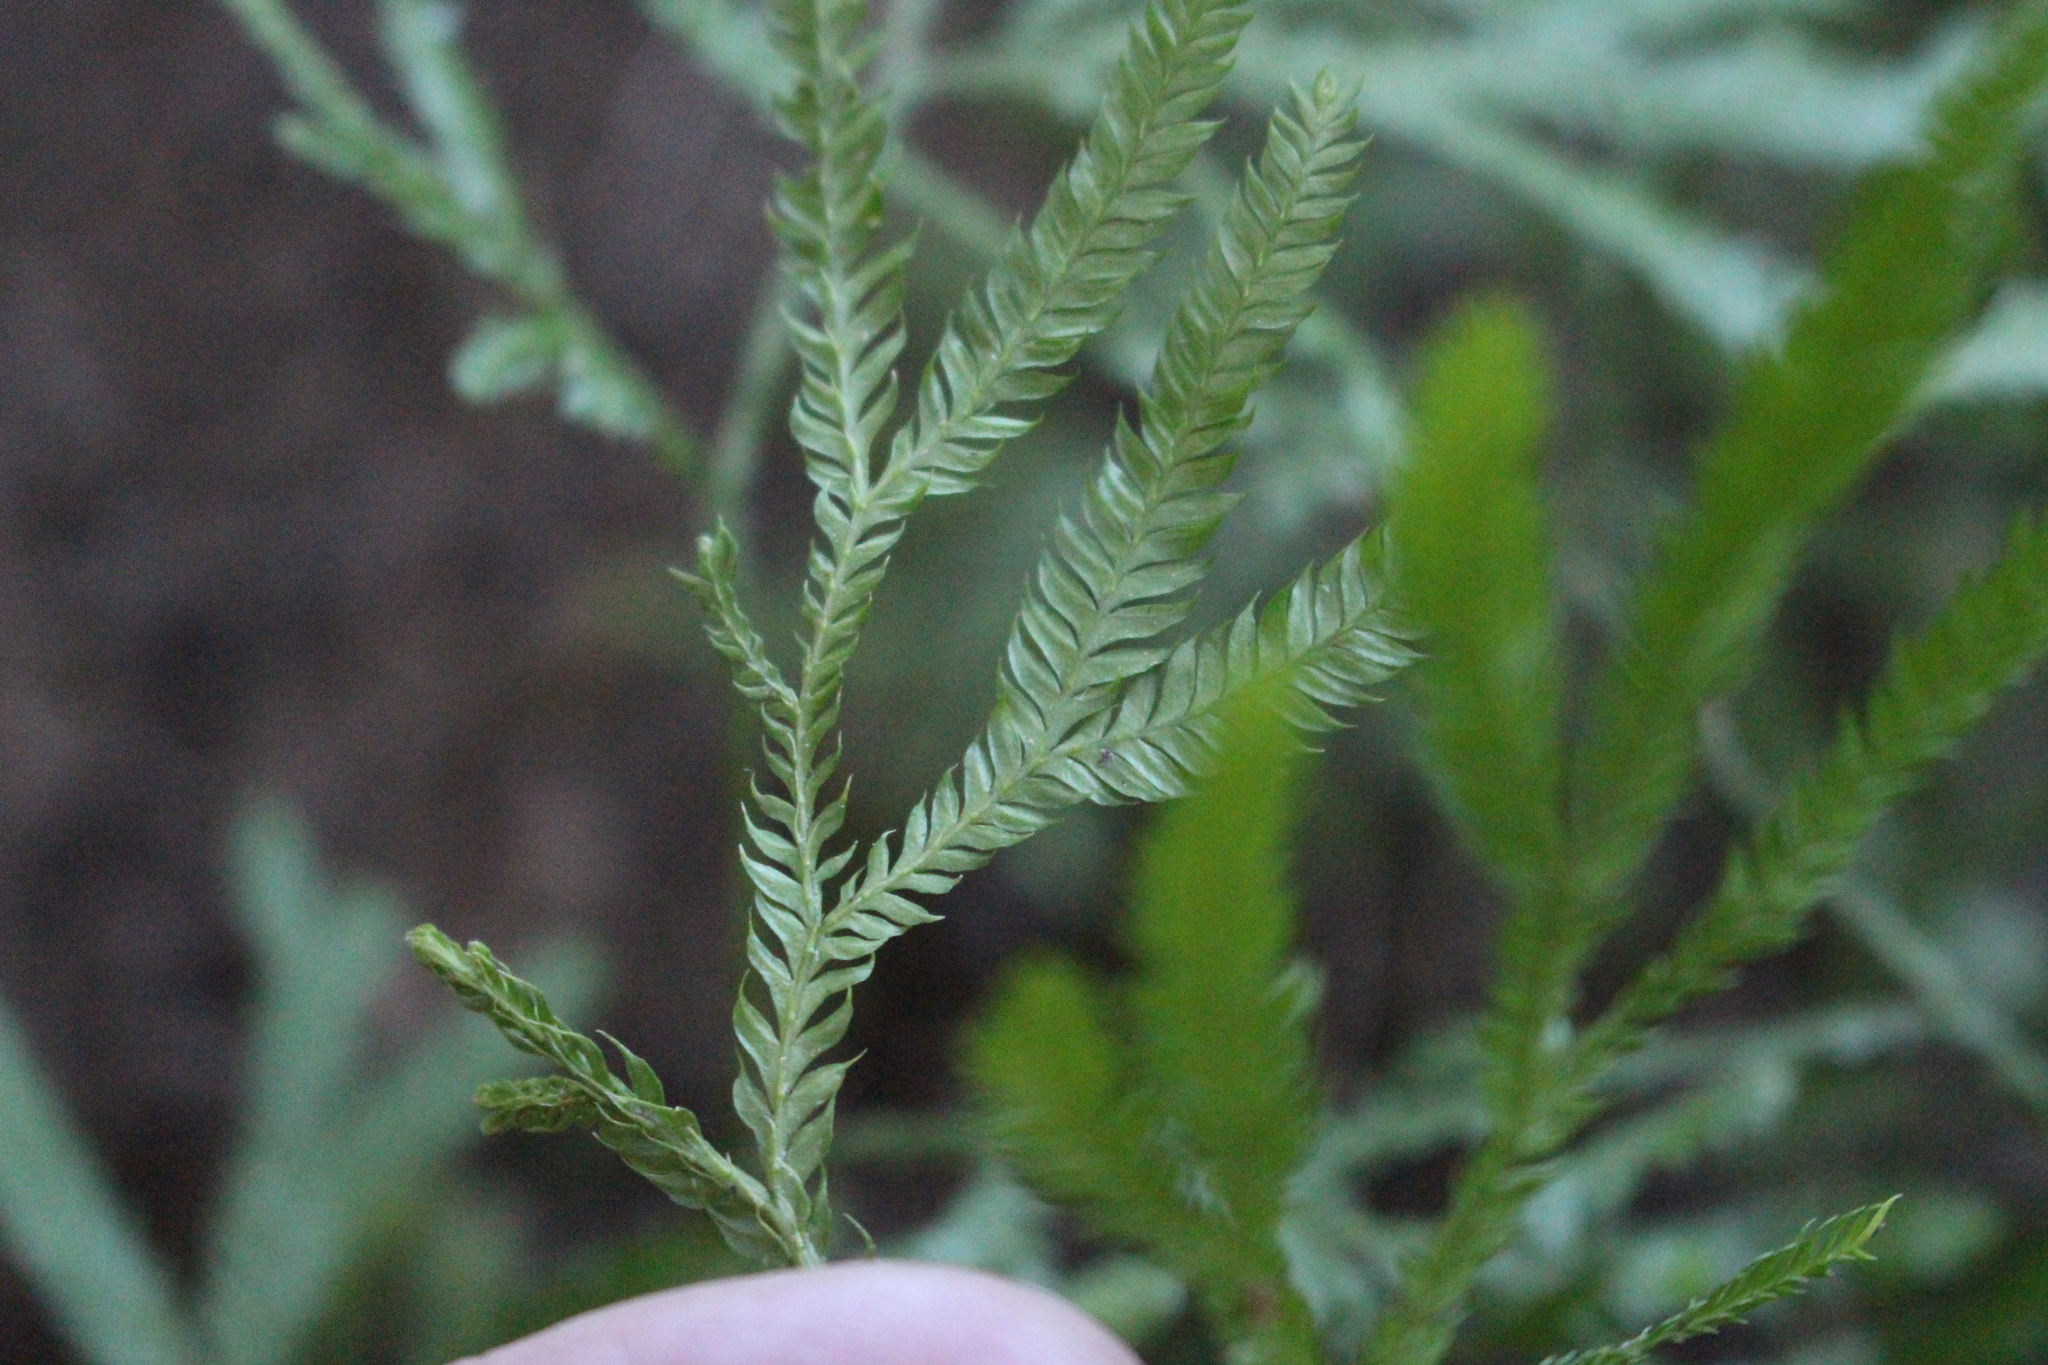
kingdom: Plantae
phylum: Tracheophyta
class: Lycopodiopsida
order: Lycopodiales
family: Lycopodiaceae
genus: Lycopodium
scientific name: Lycopodium volubile
